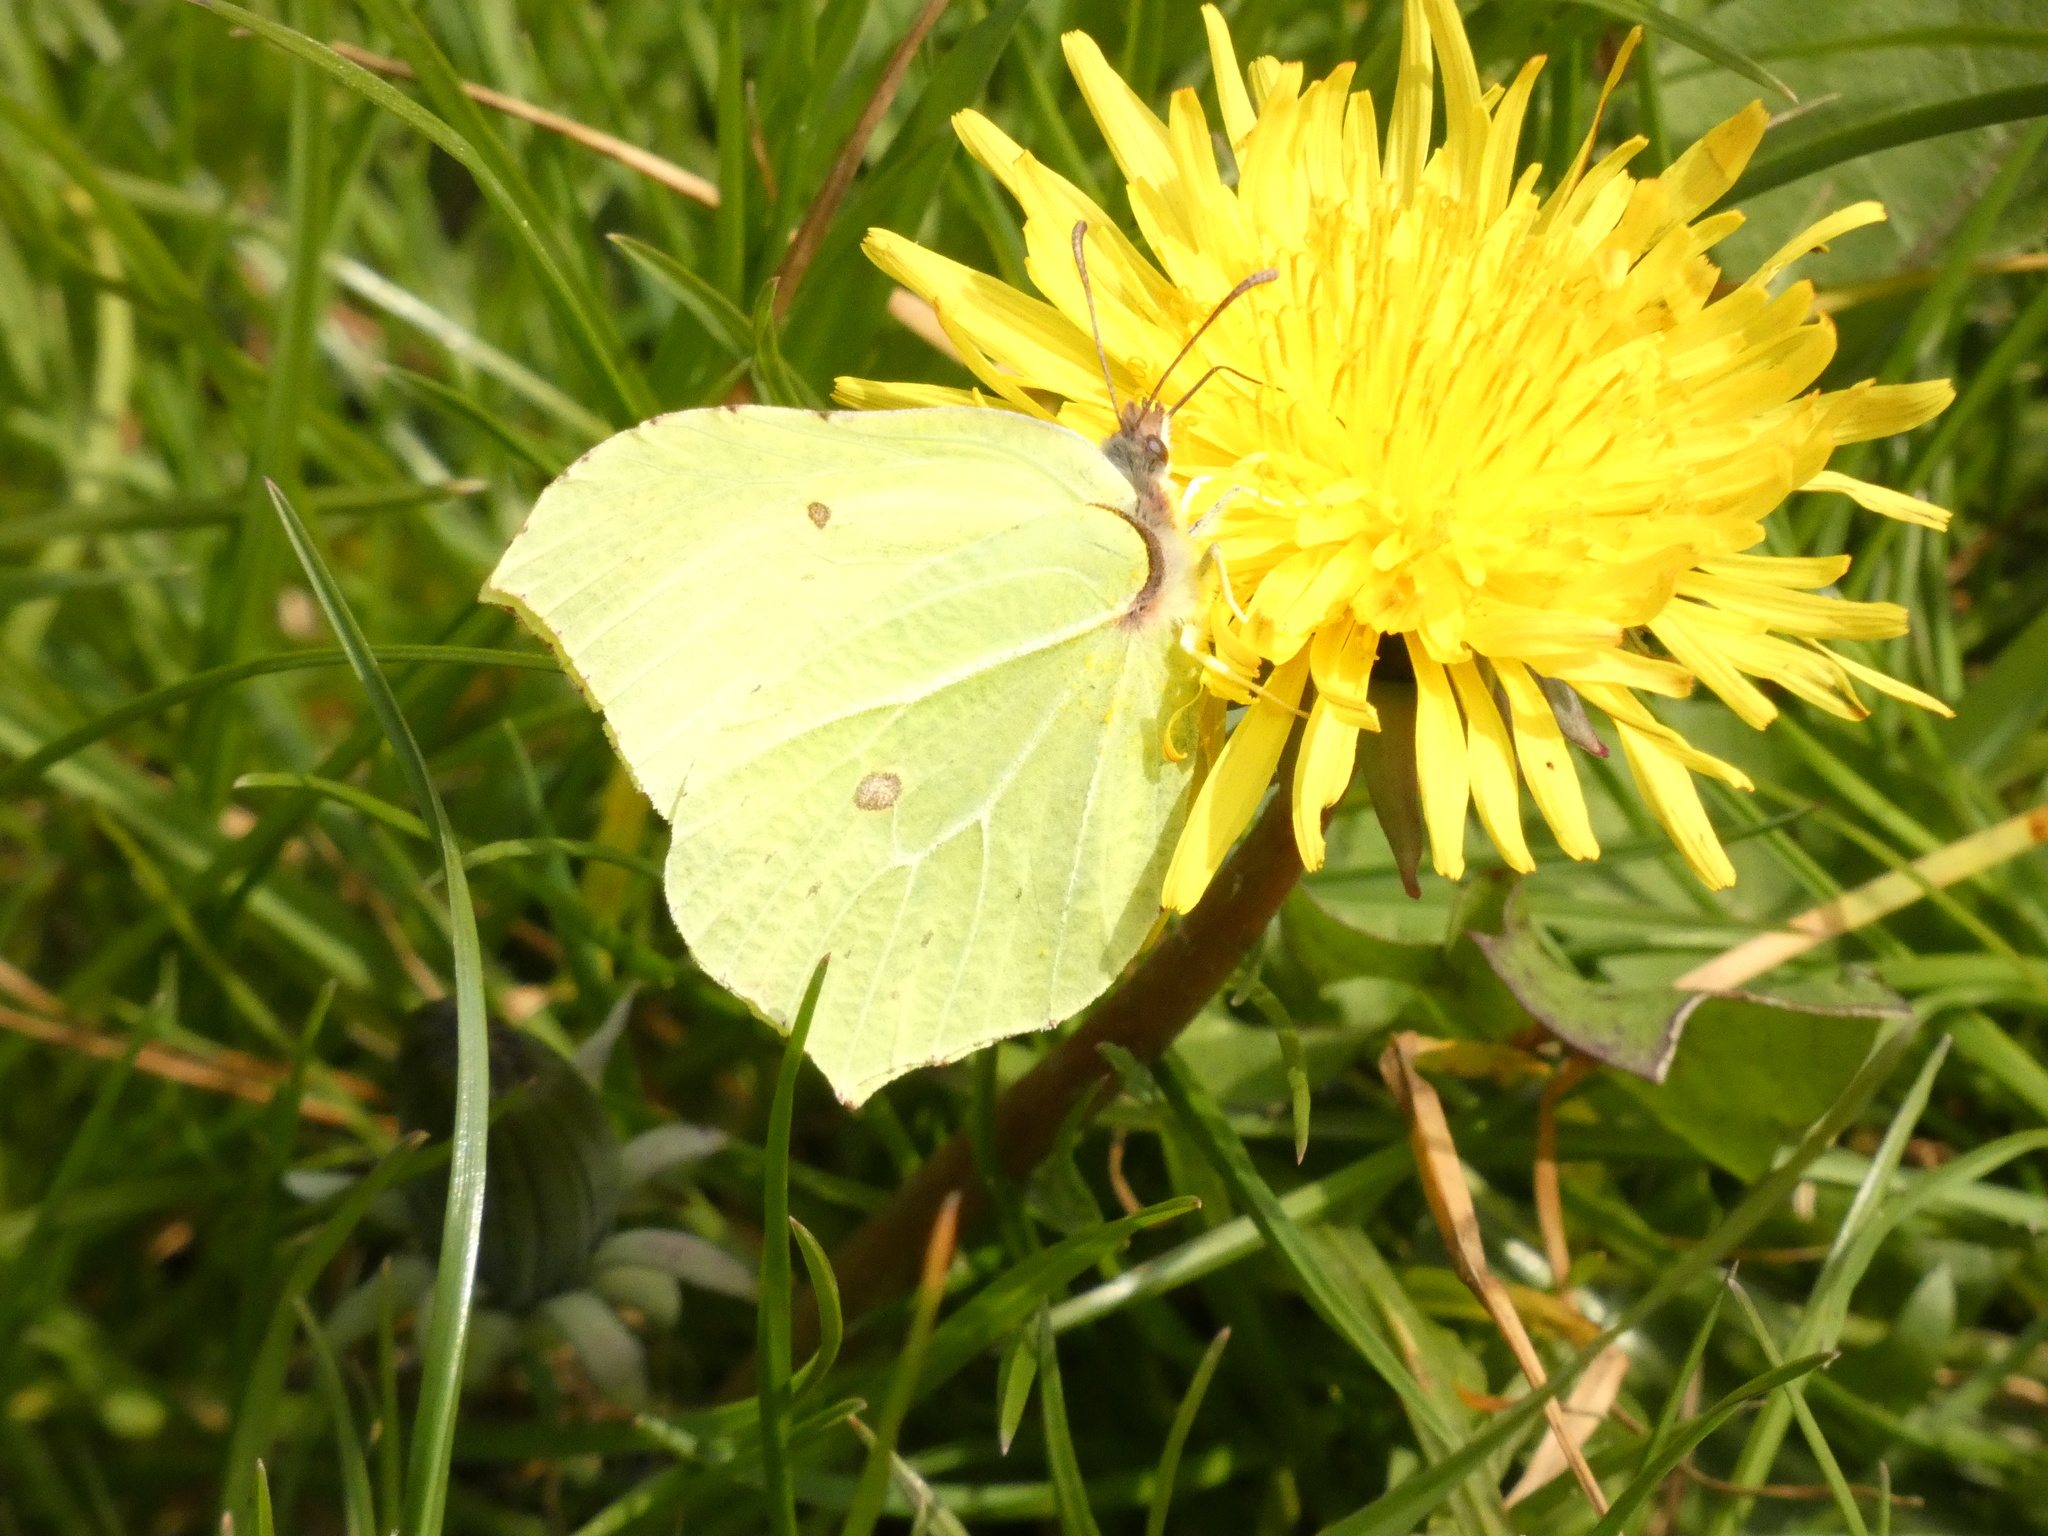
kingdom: Animalia
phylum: Arthropoda
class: Insecta
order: Lepidoptera
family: Pieridae
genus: Gonepteryx
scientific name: Gonepteryx rhamni
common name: Brimstone
